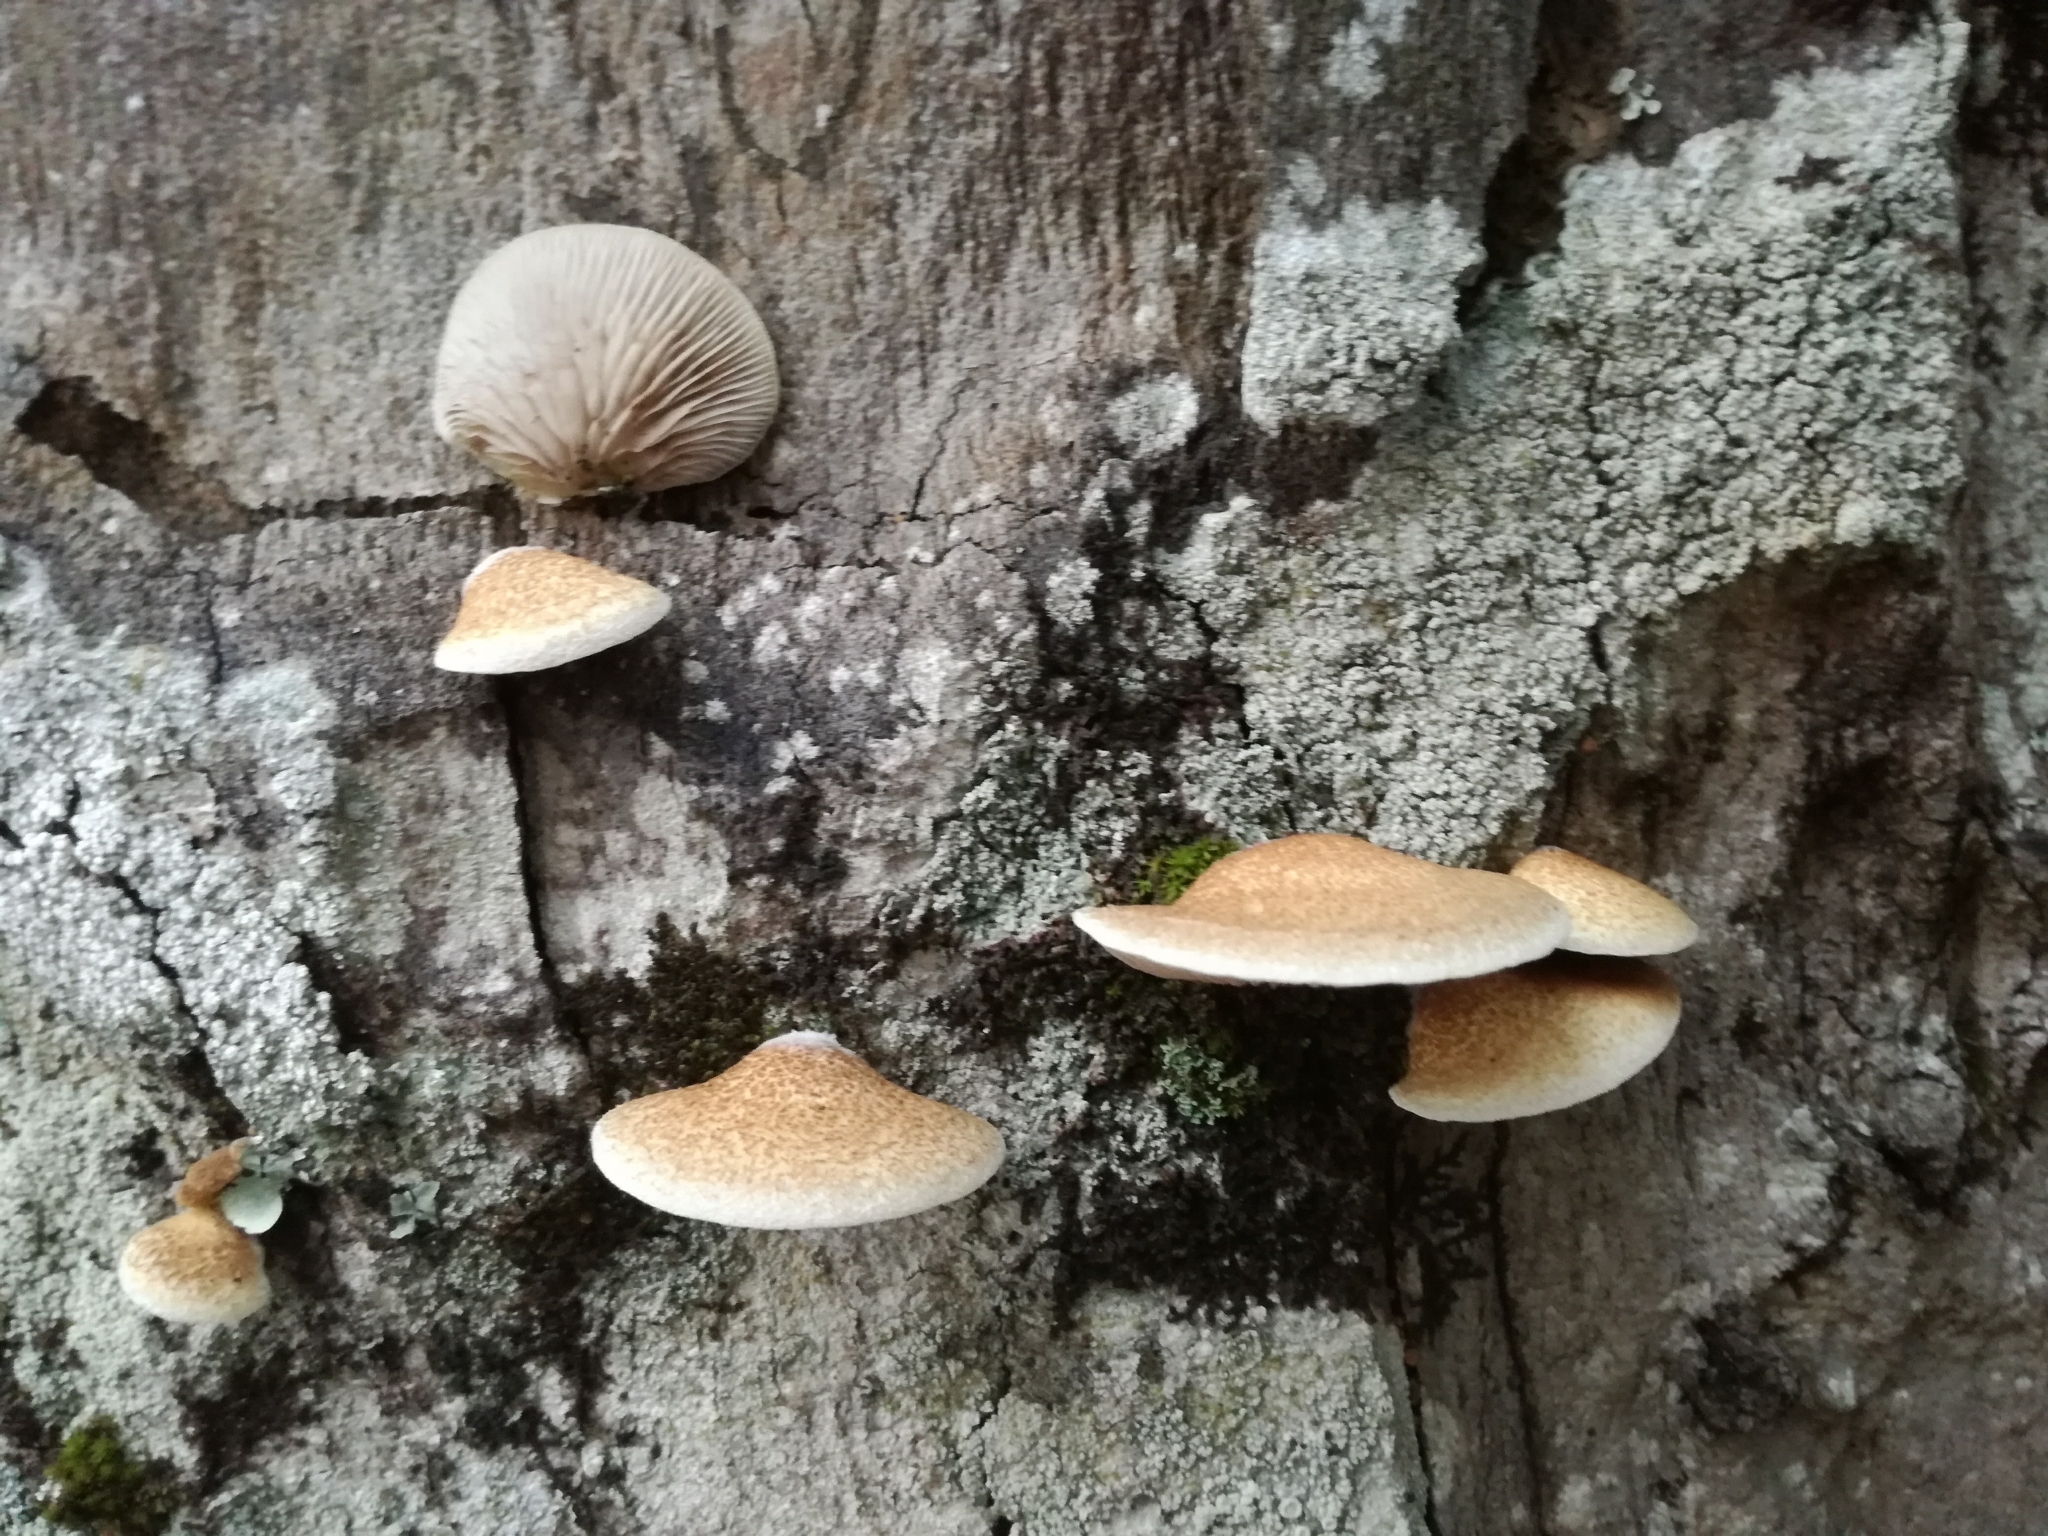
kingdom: Fungi
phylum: Basidiomycota
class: Agaricomycetes
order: Agaricales
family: Crepidotaceae
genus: Crepidotus
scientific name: Crepidotus calolepis
